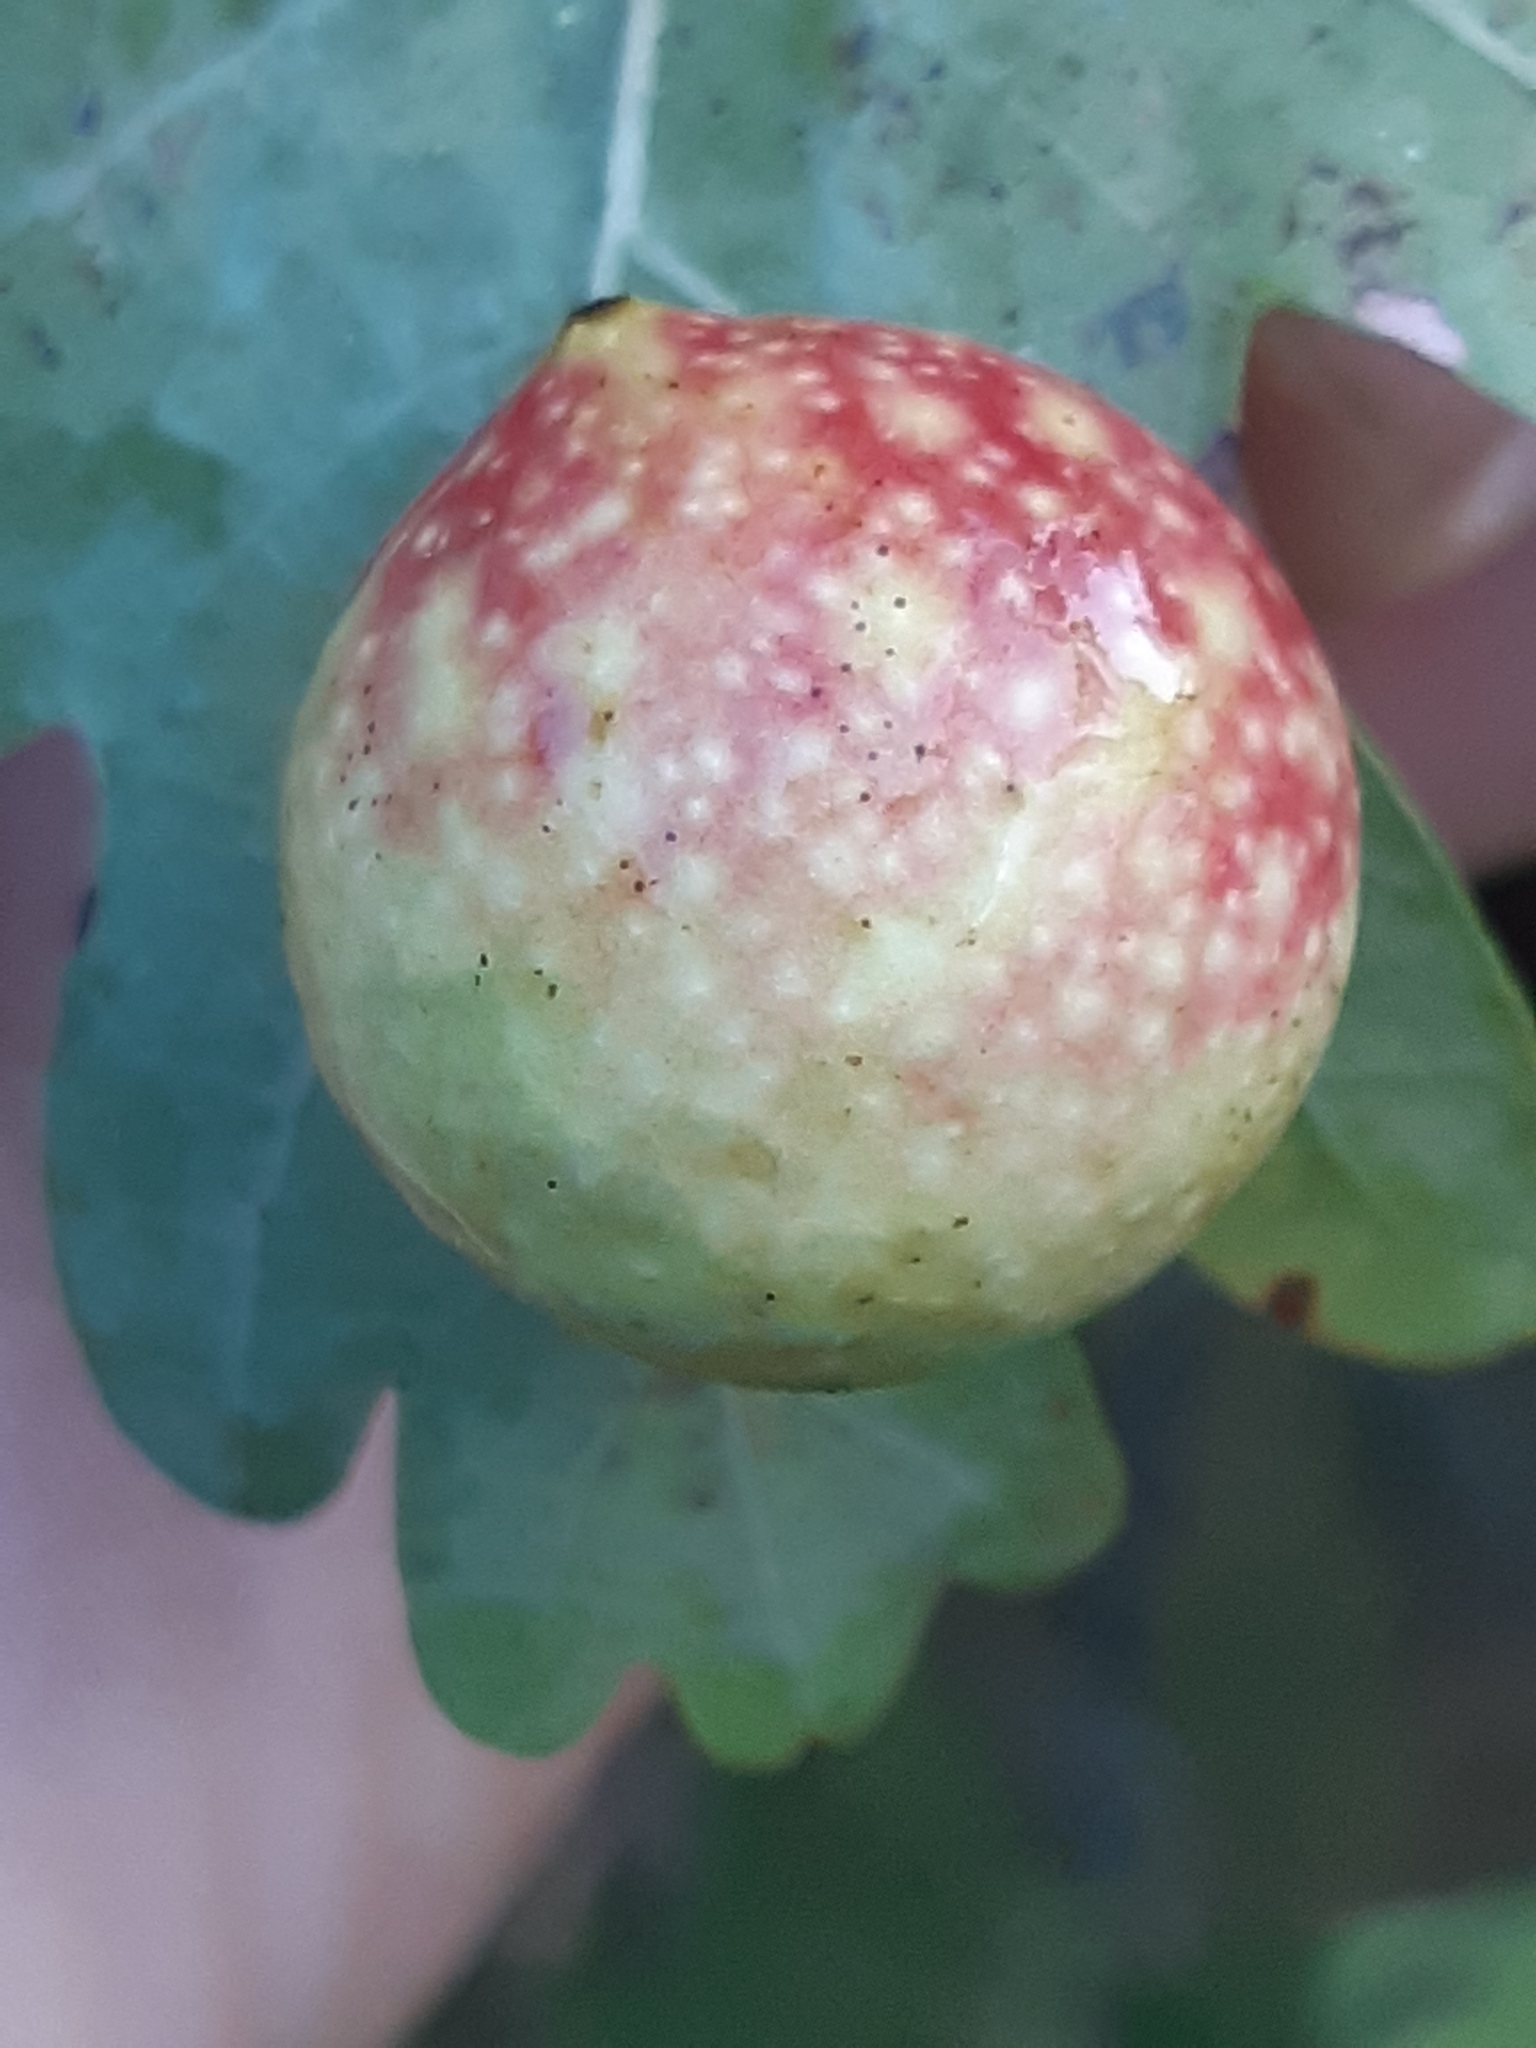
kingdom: Animalia
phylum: Arthropoda
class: Insecta
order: Hymenoptera
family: Cynipidae
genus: Cynips
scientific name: Cynips quercusfolii
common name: Cherry gall
